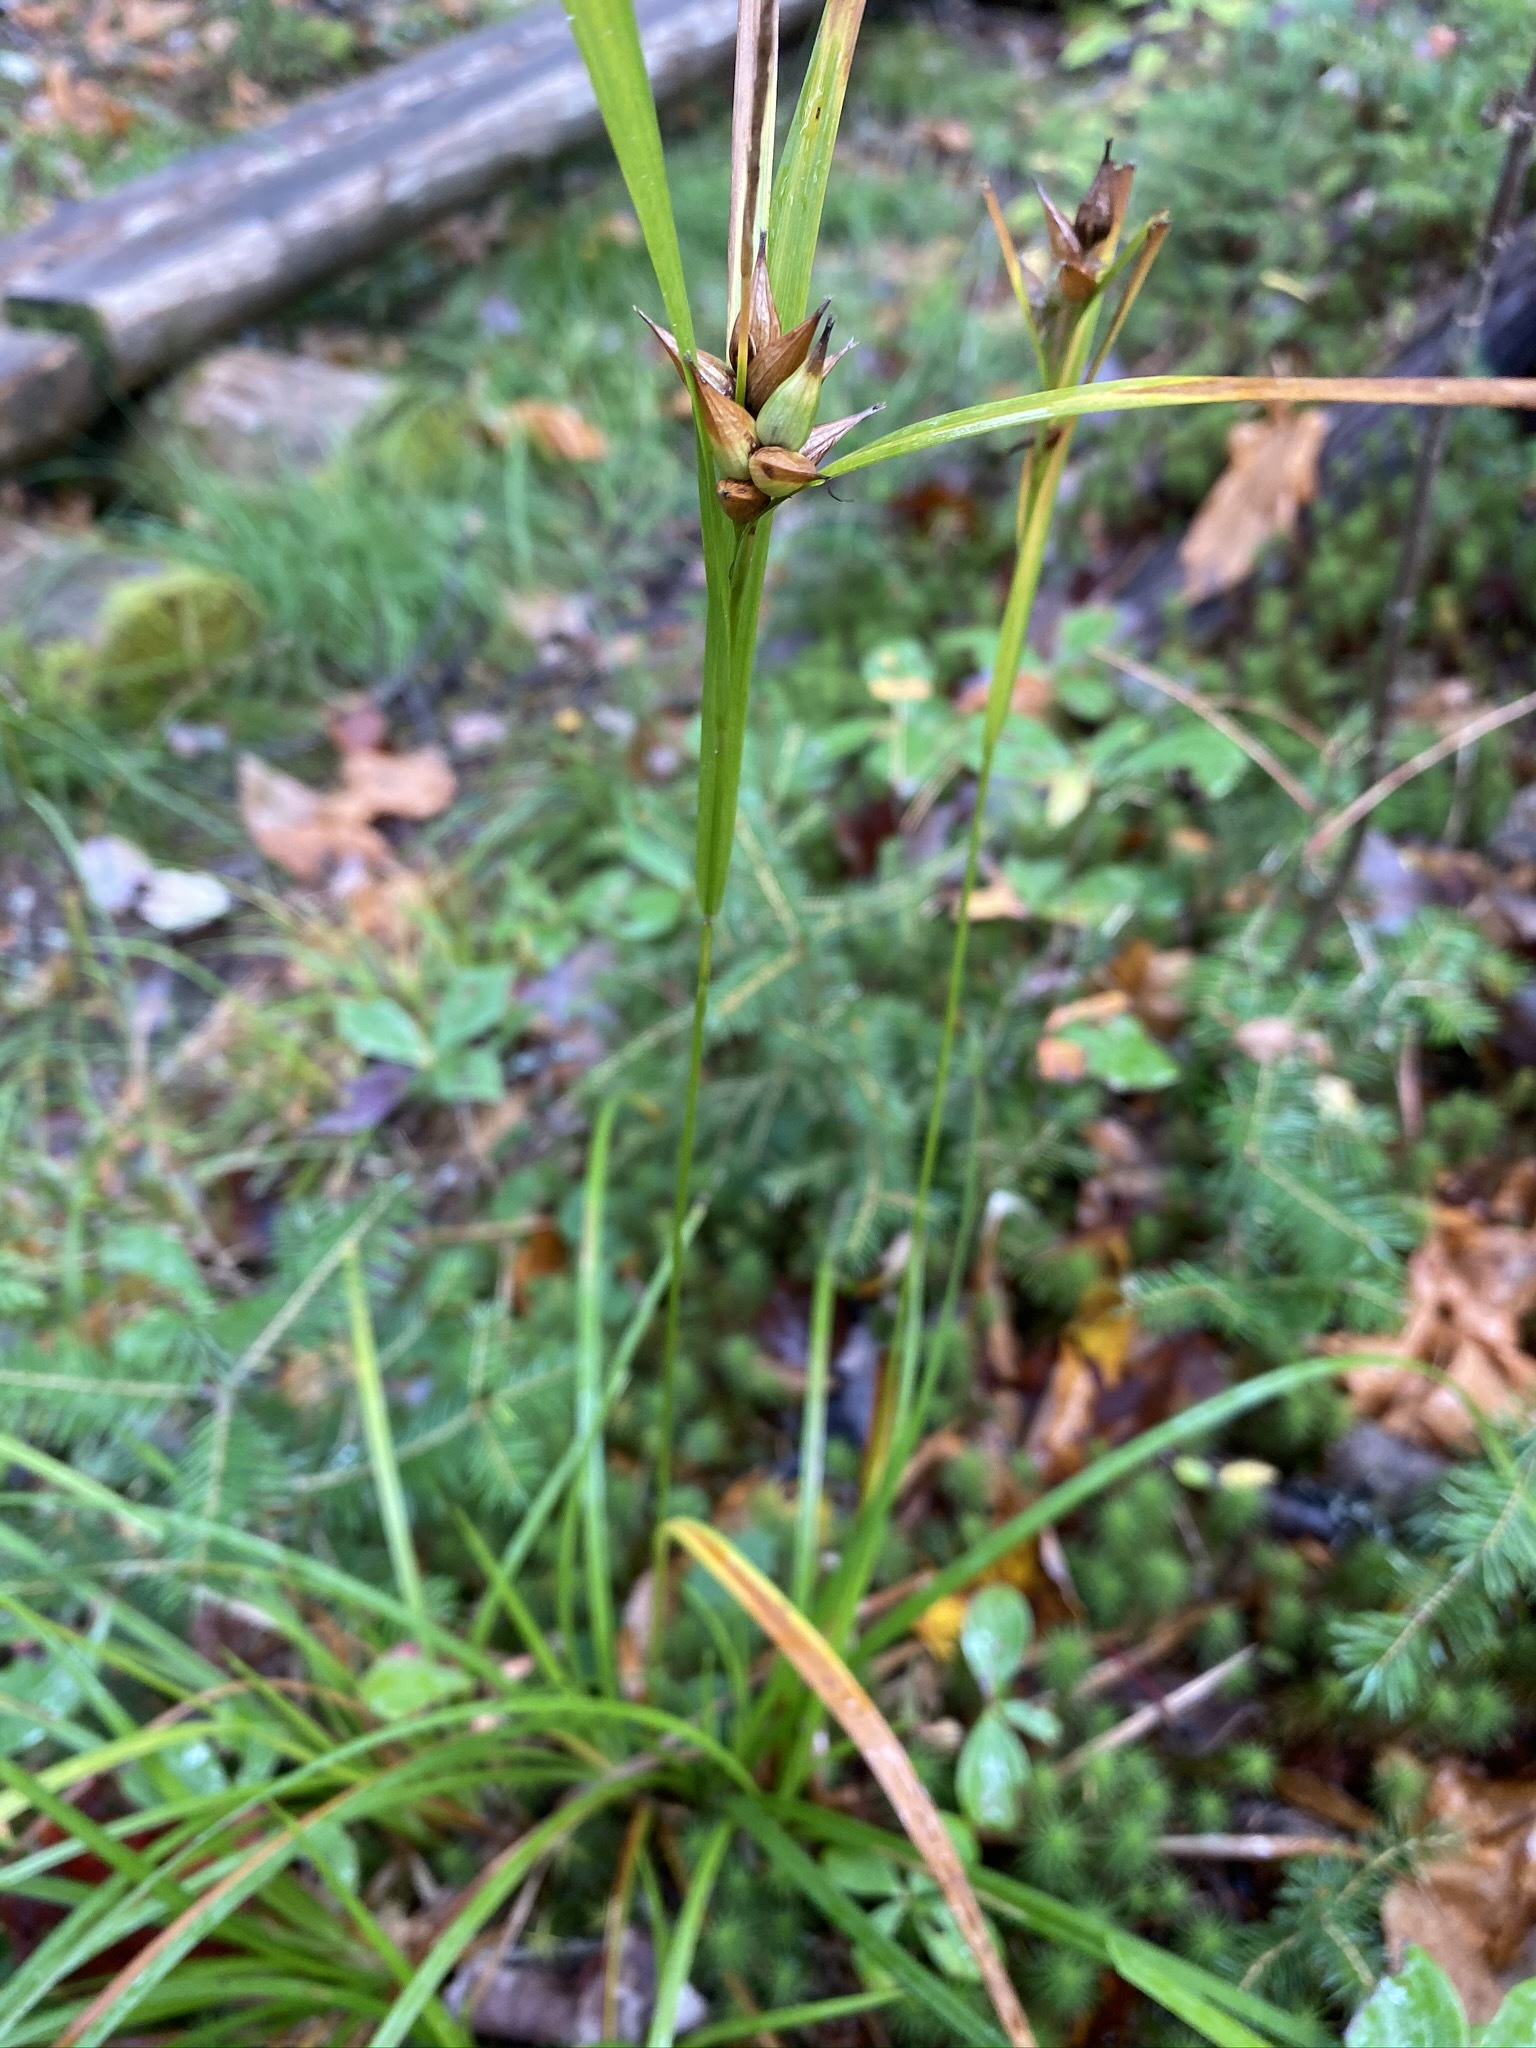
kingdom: Plantae
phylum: Tracheophyta
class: Liliopsida
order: Poales
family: Cyperaceae
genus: Carex
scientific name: Carex intumescens
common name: Greater bladder sedge
